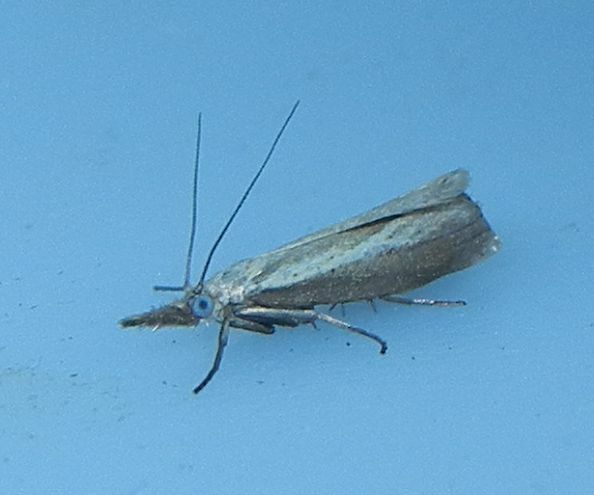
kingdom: Animalia
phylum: Arthropoda
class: Insecta
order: Lepidoptera
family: Crambidae
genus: Agriphila
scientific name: Agriphila straminella
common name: Straw grass-veneer
